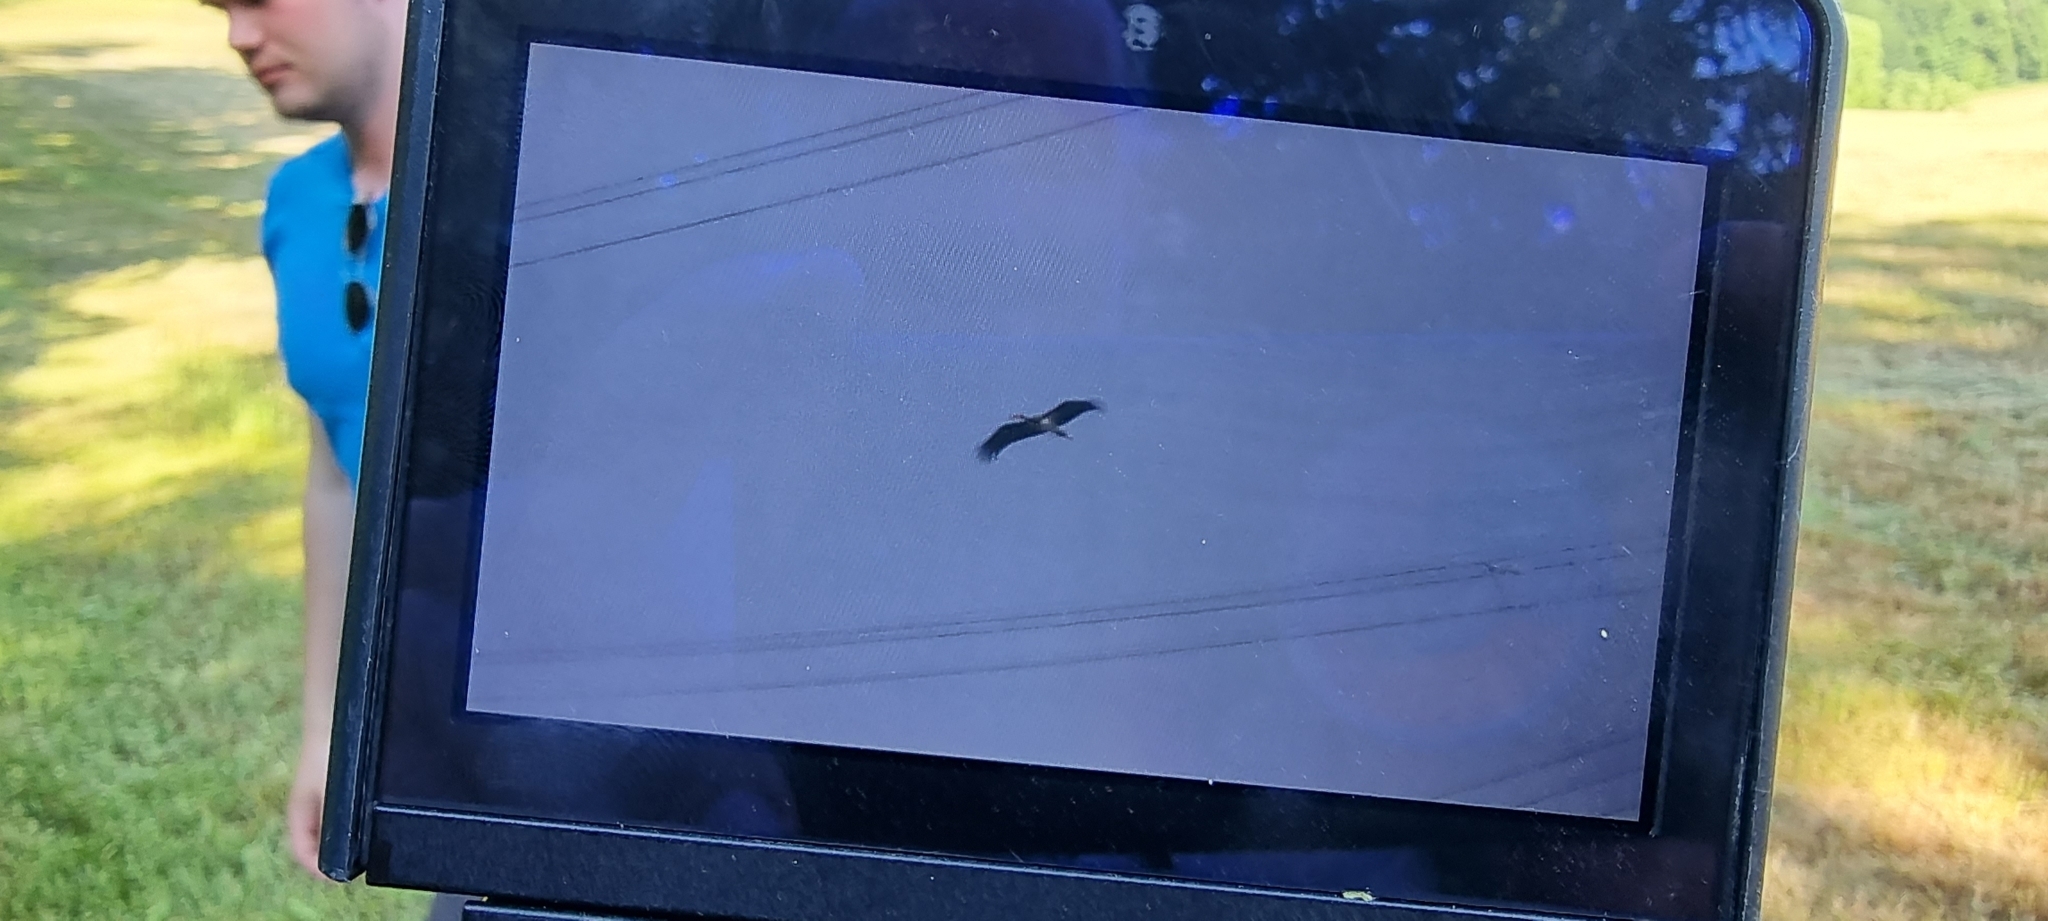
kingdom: Animalia
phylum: Chordata
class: Aves
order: Ciconiiformes
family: Ciconiidae
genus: Ciconia
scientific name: Ciconia nigra
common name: Black stork
